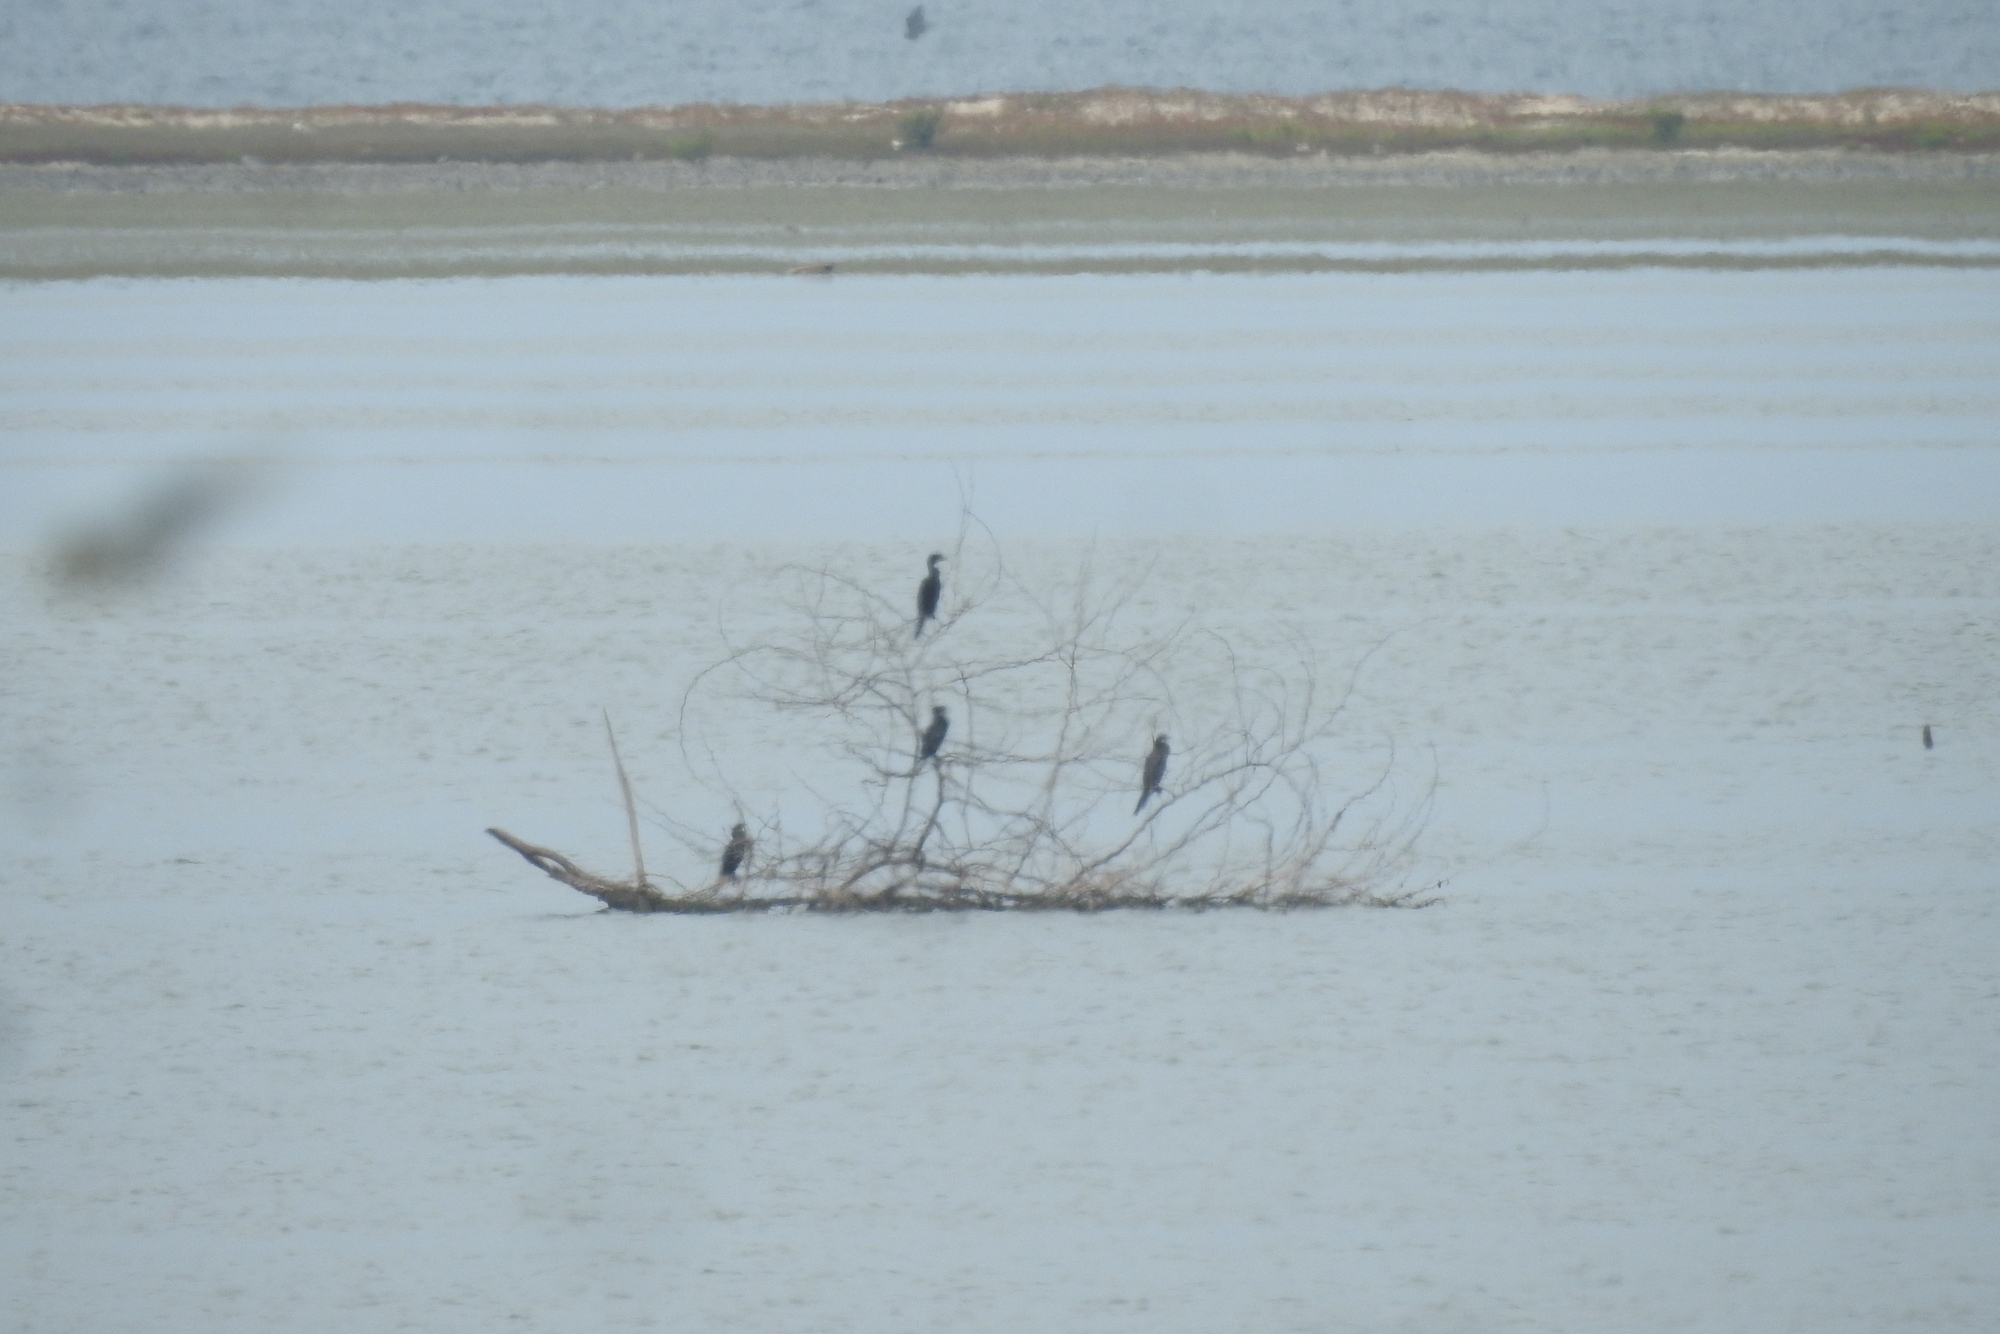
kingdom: Animalia
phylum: Chordata
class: Aves
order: Suliformes
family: Phalacrocoracidae
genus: Microcarbo
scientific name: Microcarbo niger
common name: Little cormorant
